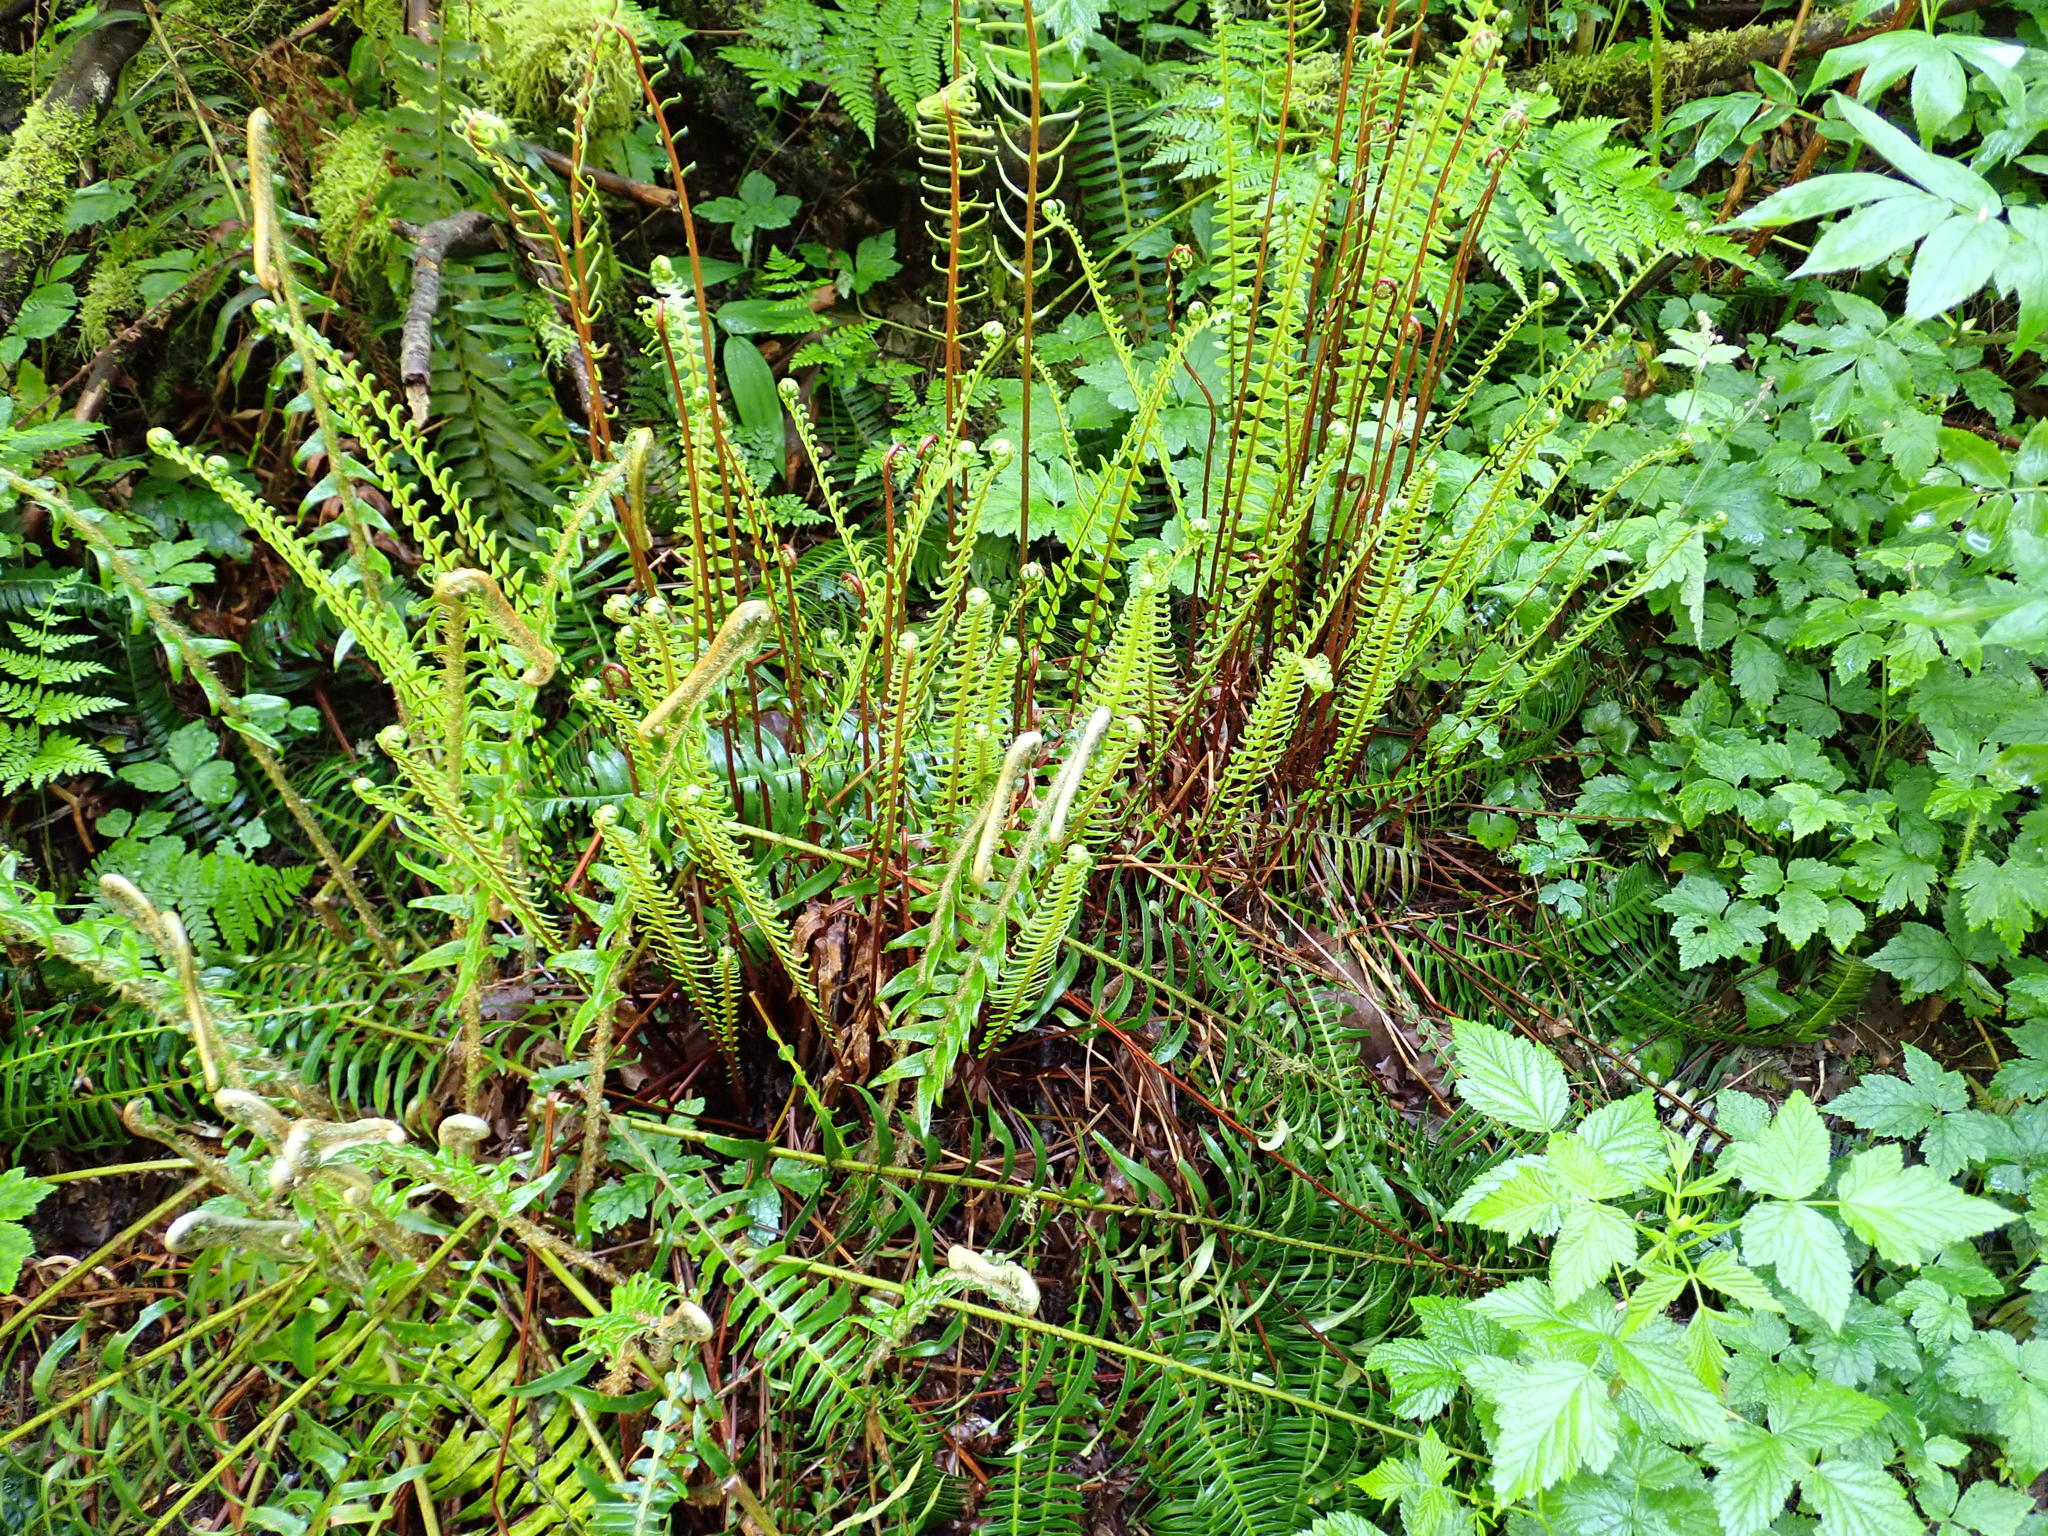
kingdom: Plantae
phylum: Tracheophyta
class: Polypodiopsida
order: Polypodiales
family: Blechnaceae
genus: Struthiopteris
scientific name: Struthiopteris spicant
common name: Deer fern
